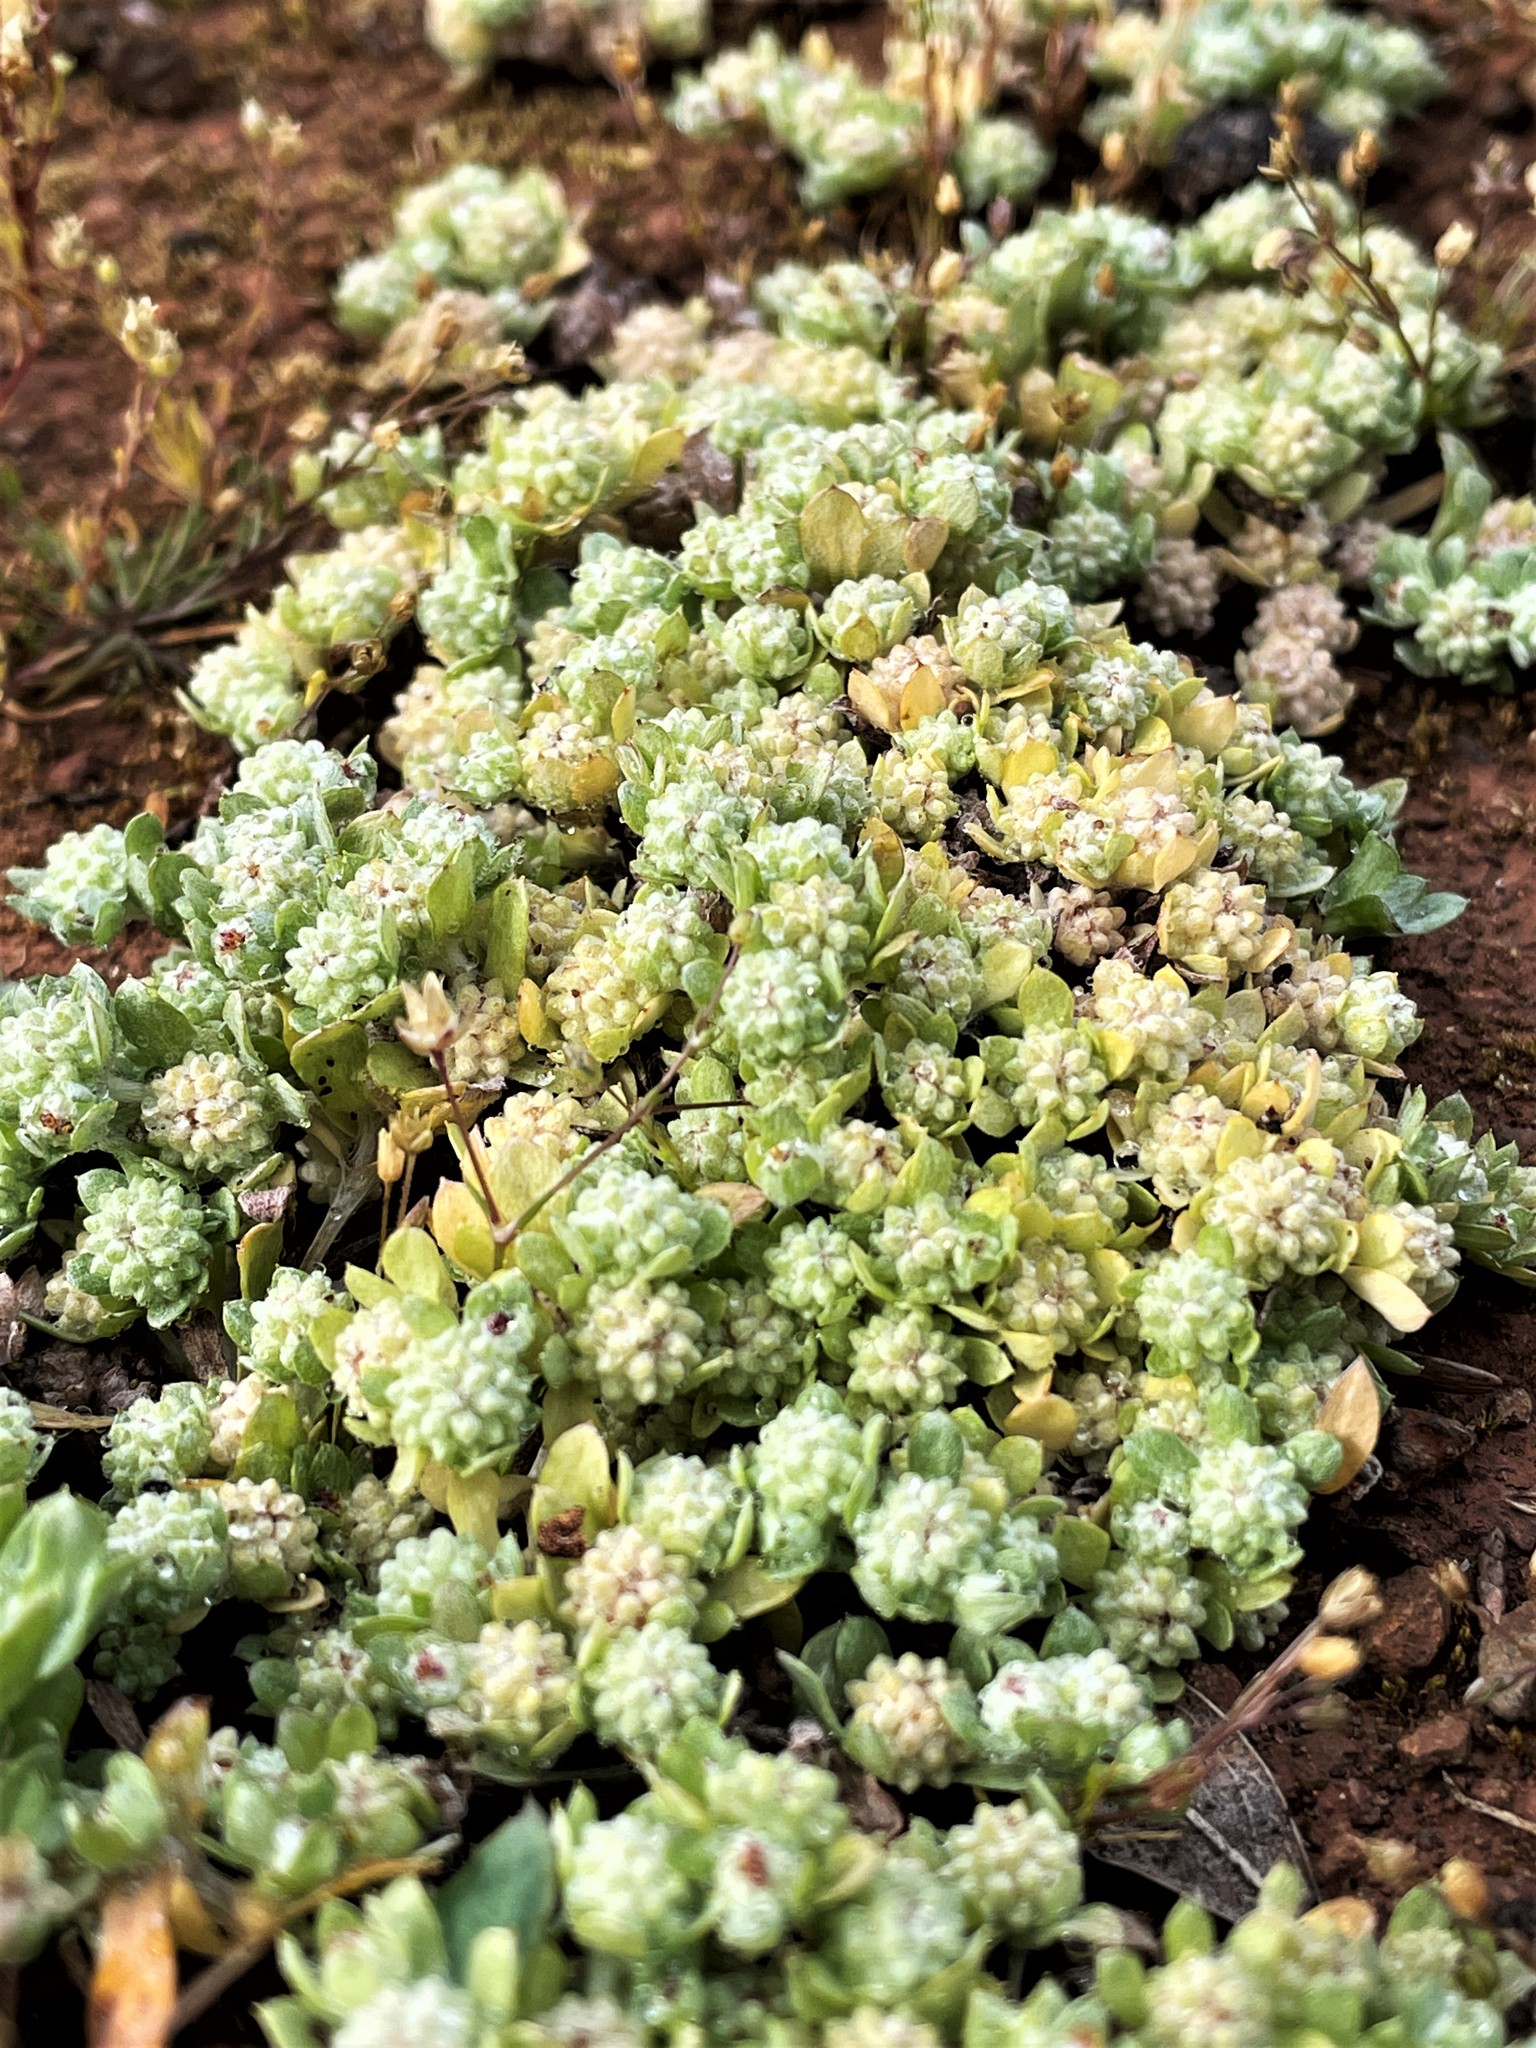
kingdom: Plantae
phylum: Tracheophyta
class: Magnoliopsida
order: Asterales
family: Asteraceae
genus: Psilocarphus
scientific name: Psilocarphus tenellus
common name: Slender woolly-marbles
